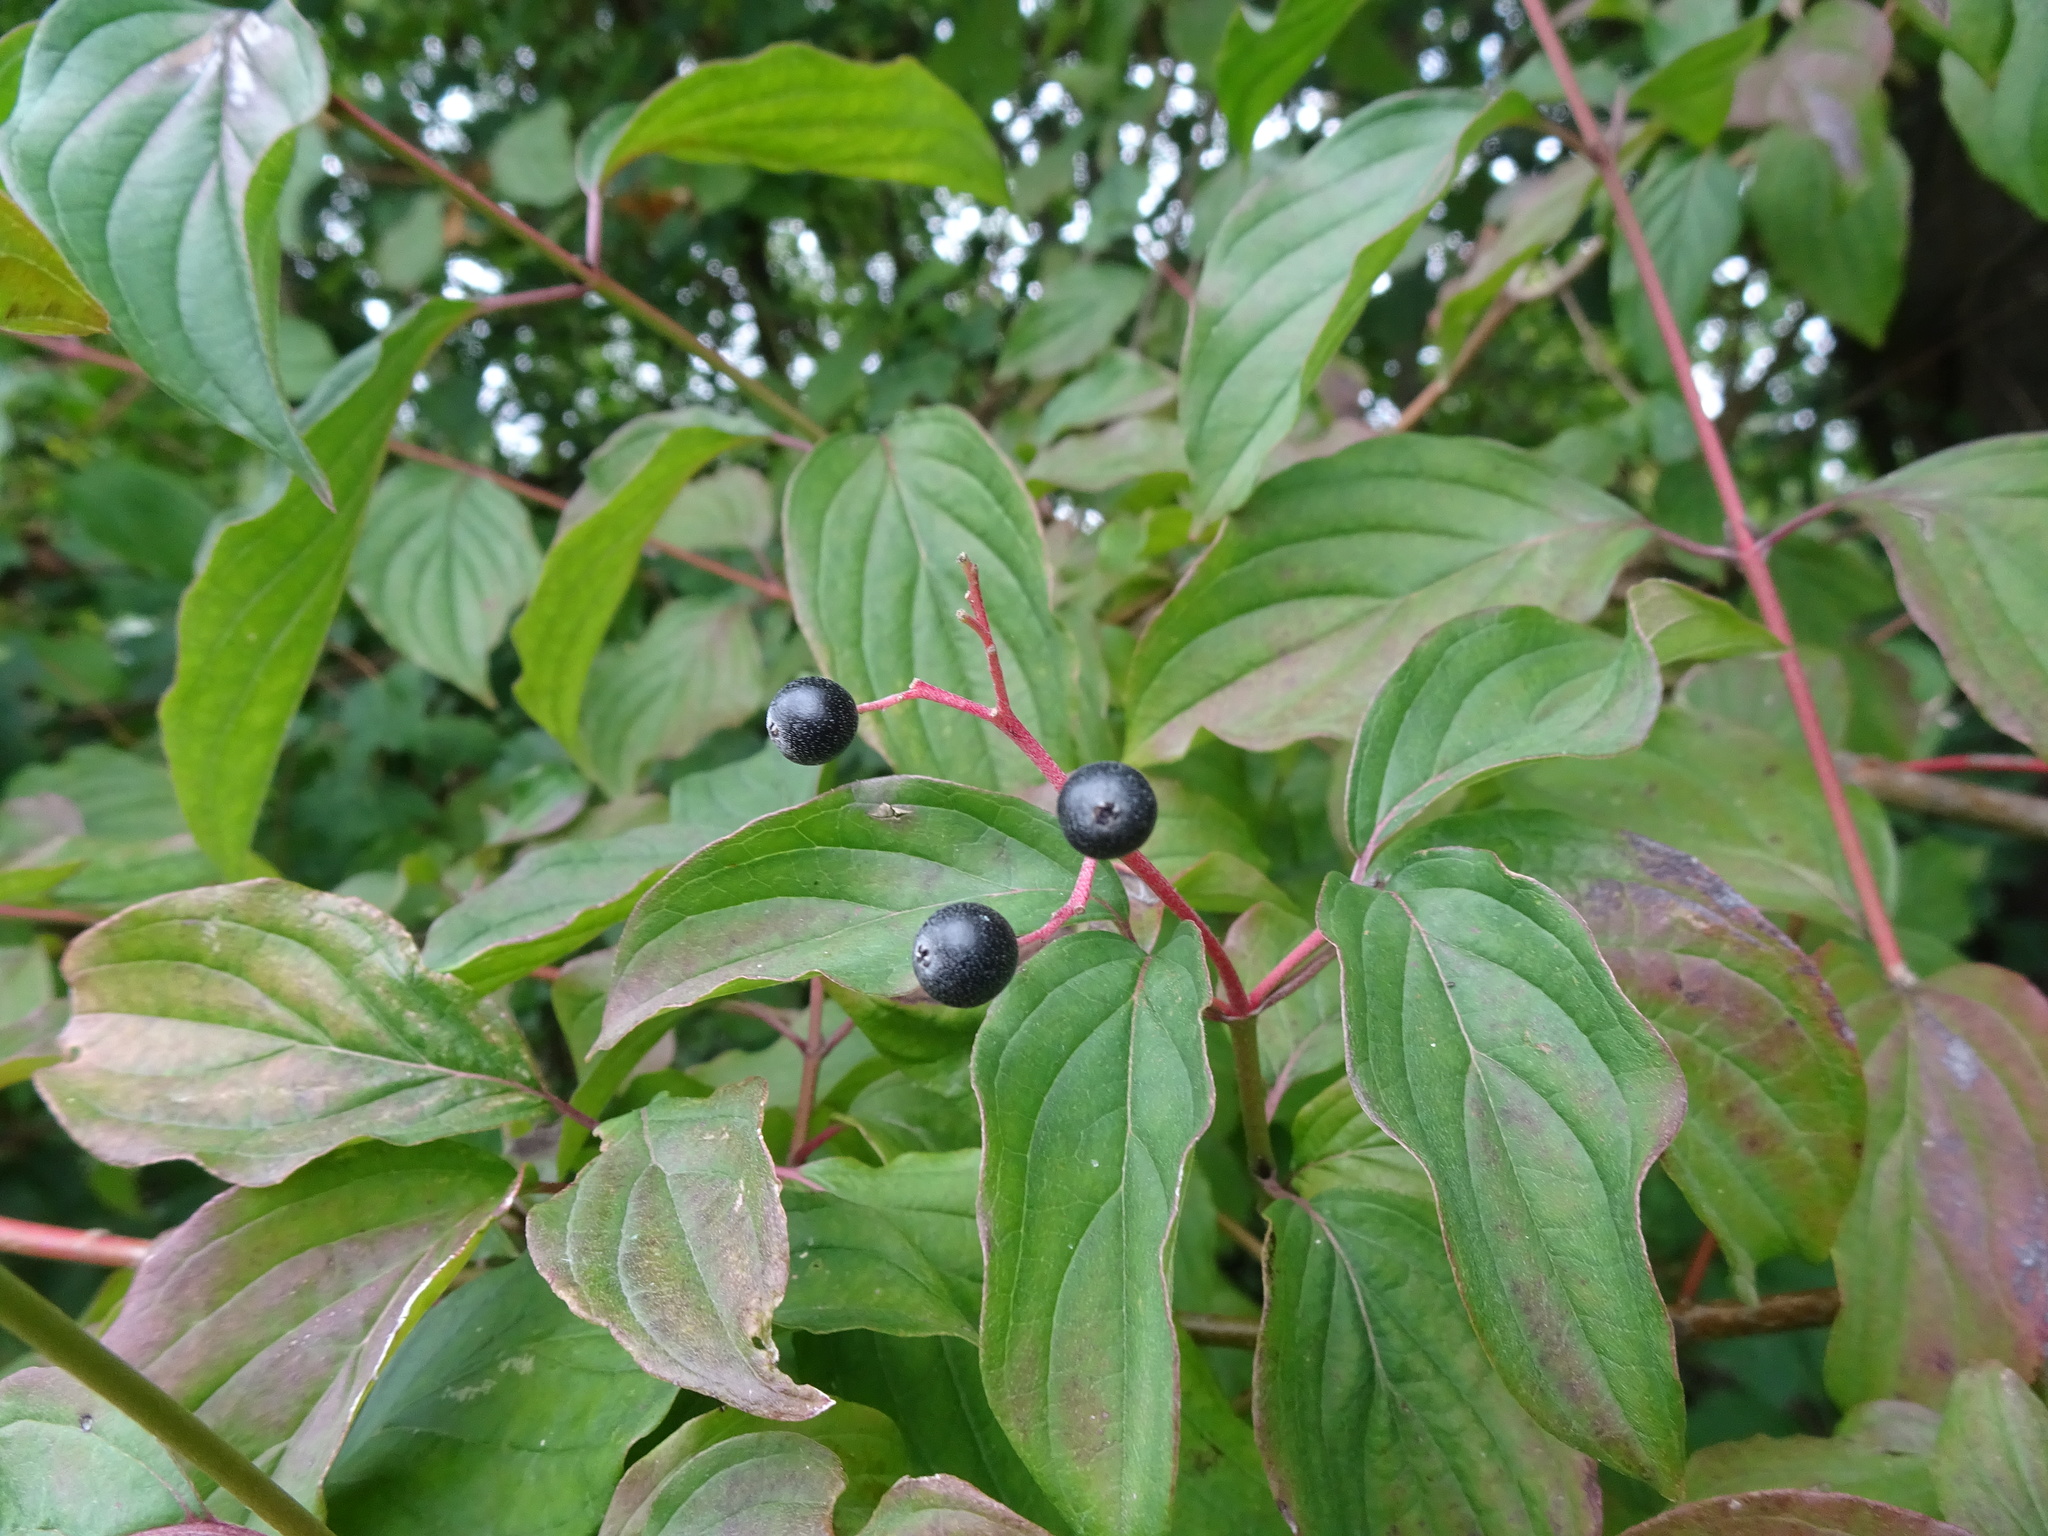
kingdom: Plantae
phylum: Tracheophyta
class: Magnoliopsida
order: Cornales
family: Cornaceae
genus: Cornus
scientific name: Cornus sanguinea
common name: Dogwood
